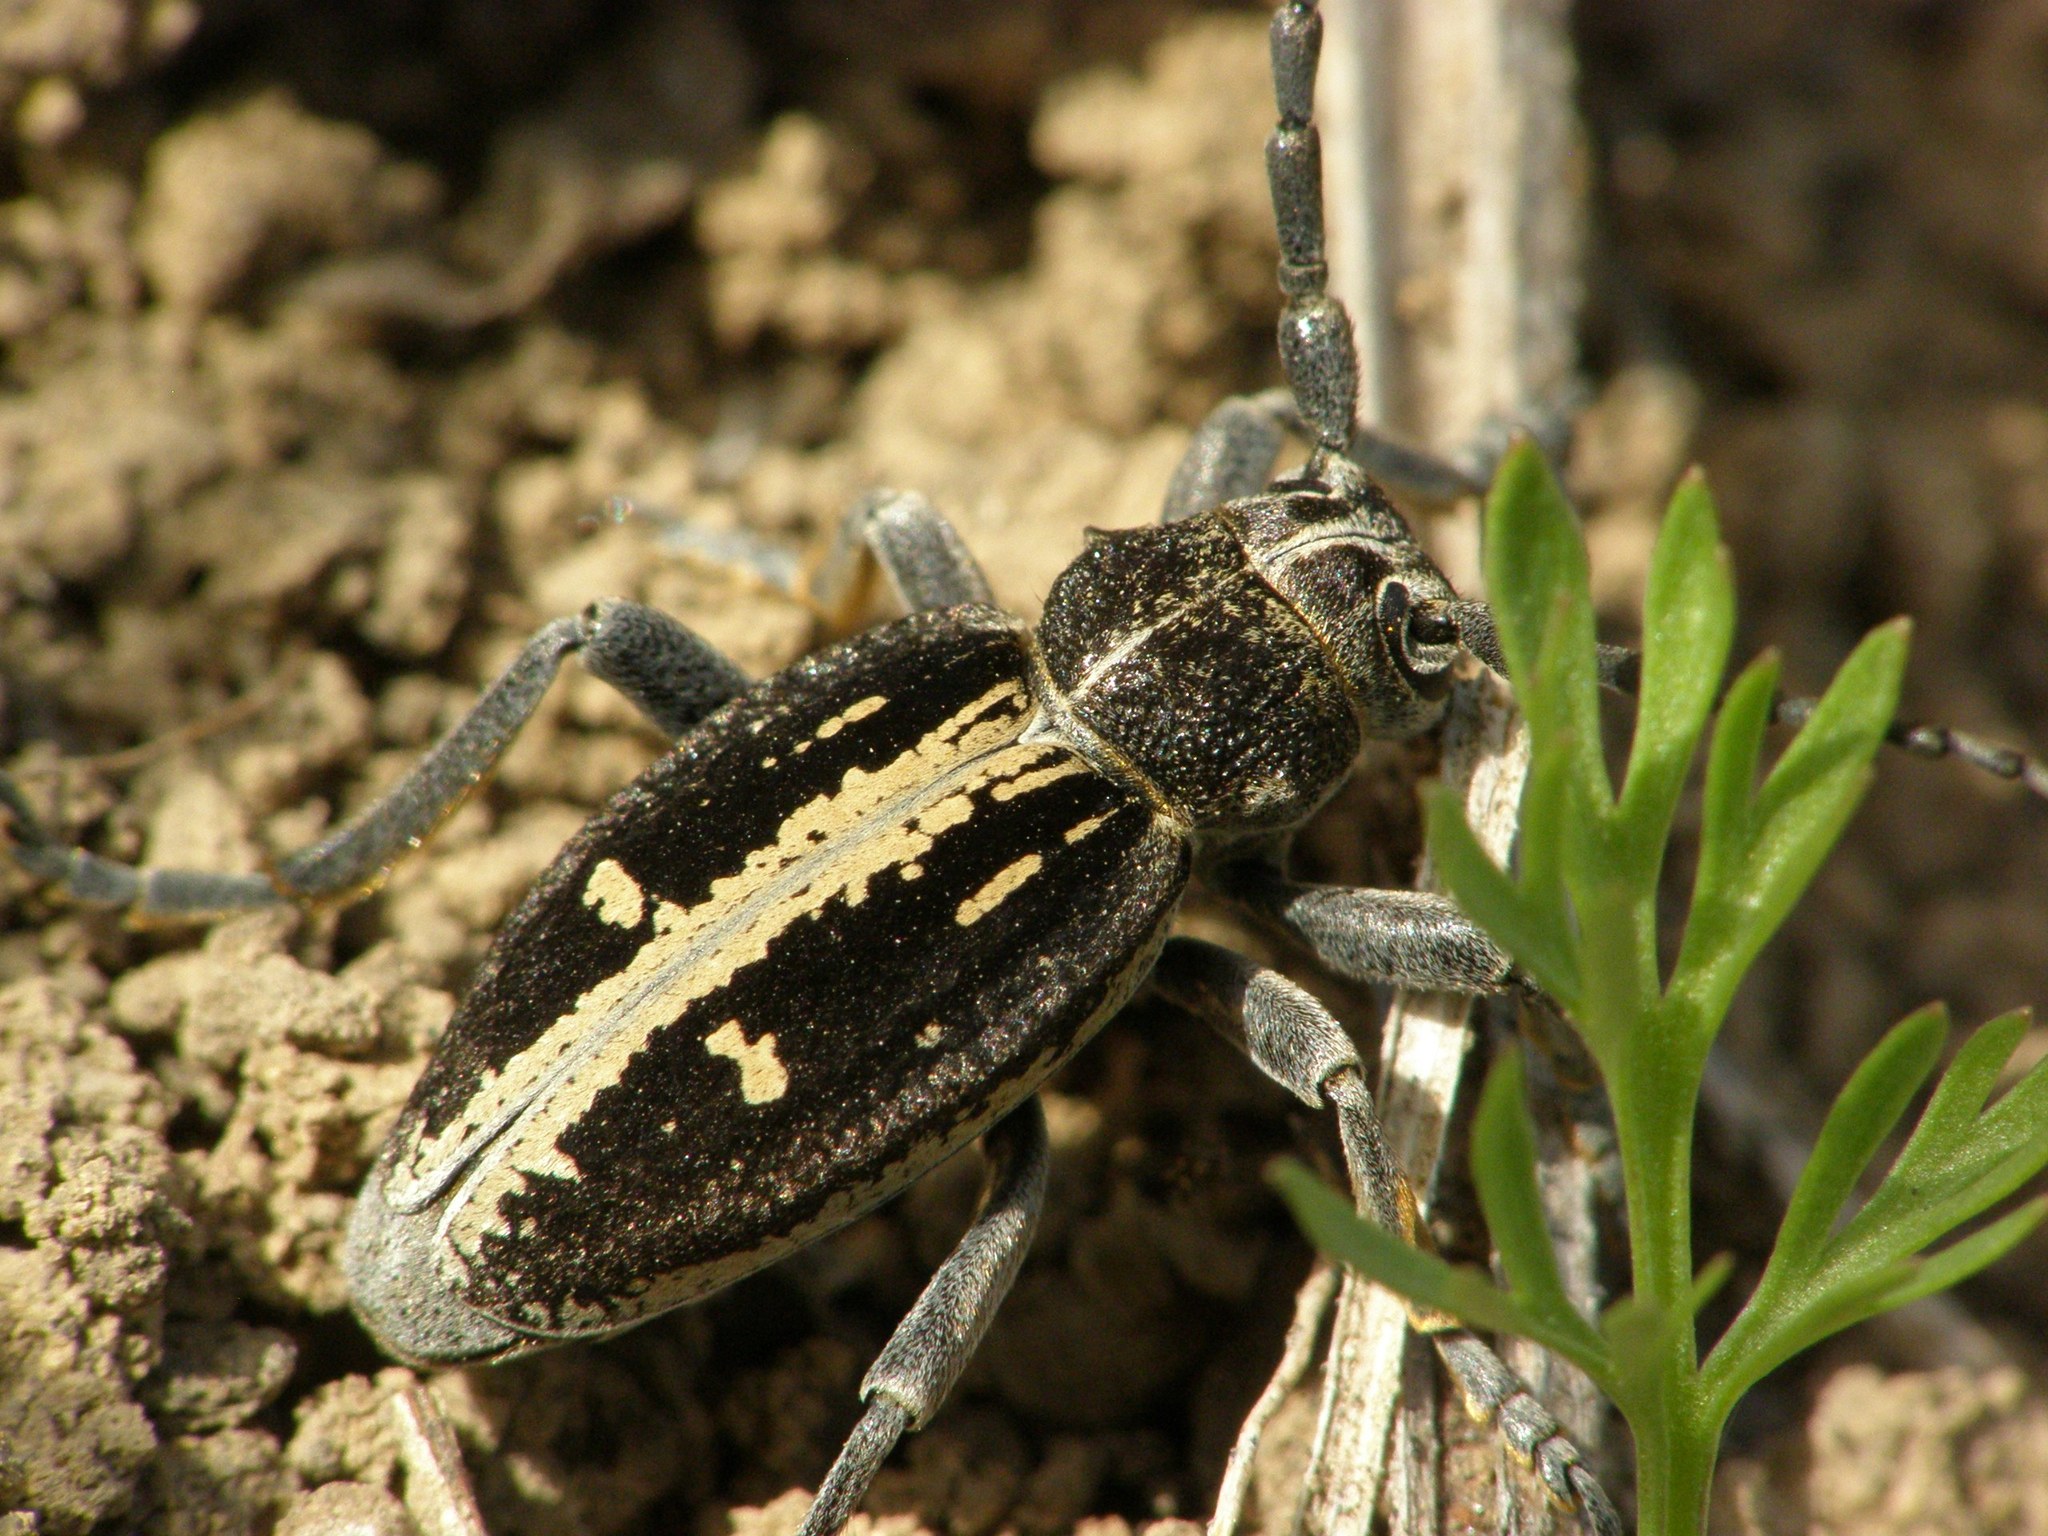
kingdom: Animalia
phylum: Arthropoda
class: Insecta
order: Coleoptera
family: Cerambycidae
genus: Dorcadion
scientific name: Dorcadion equestre
